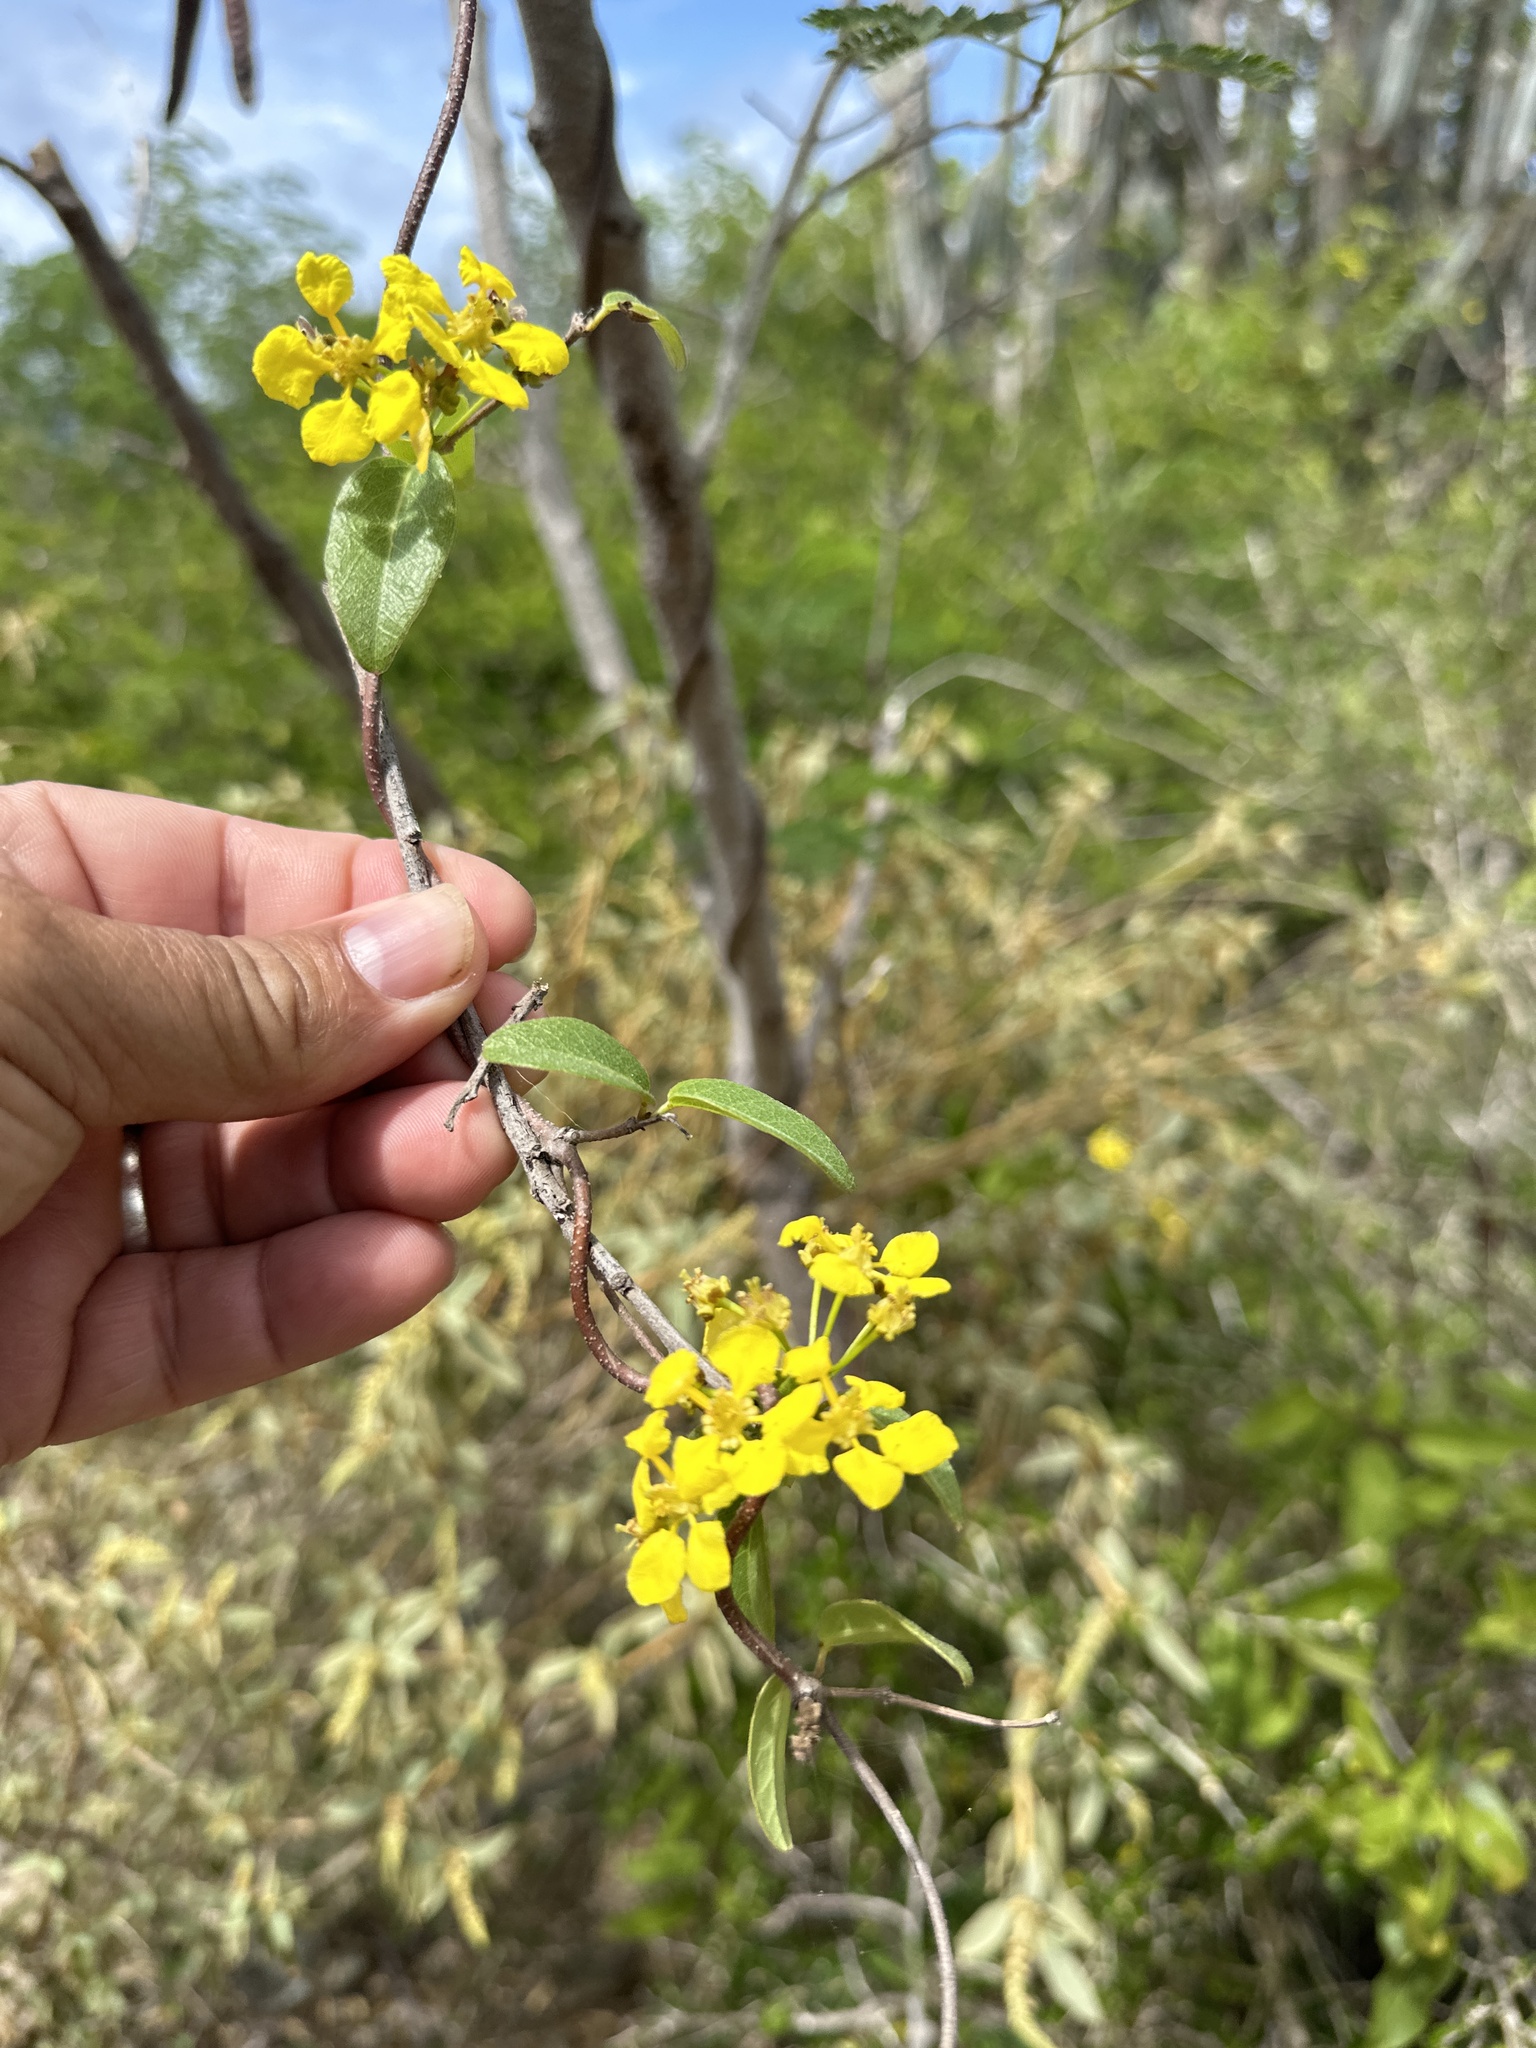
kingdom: Plantae
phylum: Tracheophyta
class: Magnoliopsida
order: Malpighiales
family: Malpighiaceae
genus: Stigmaphyllon
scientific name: Stigmaphyllon emarginatum
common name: Monarch amazonvine
